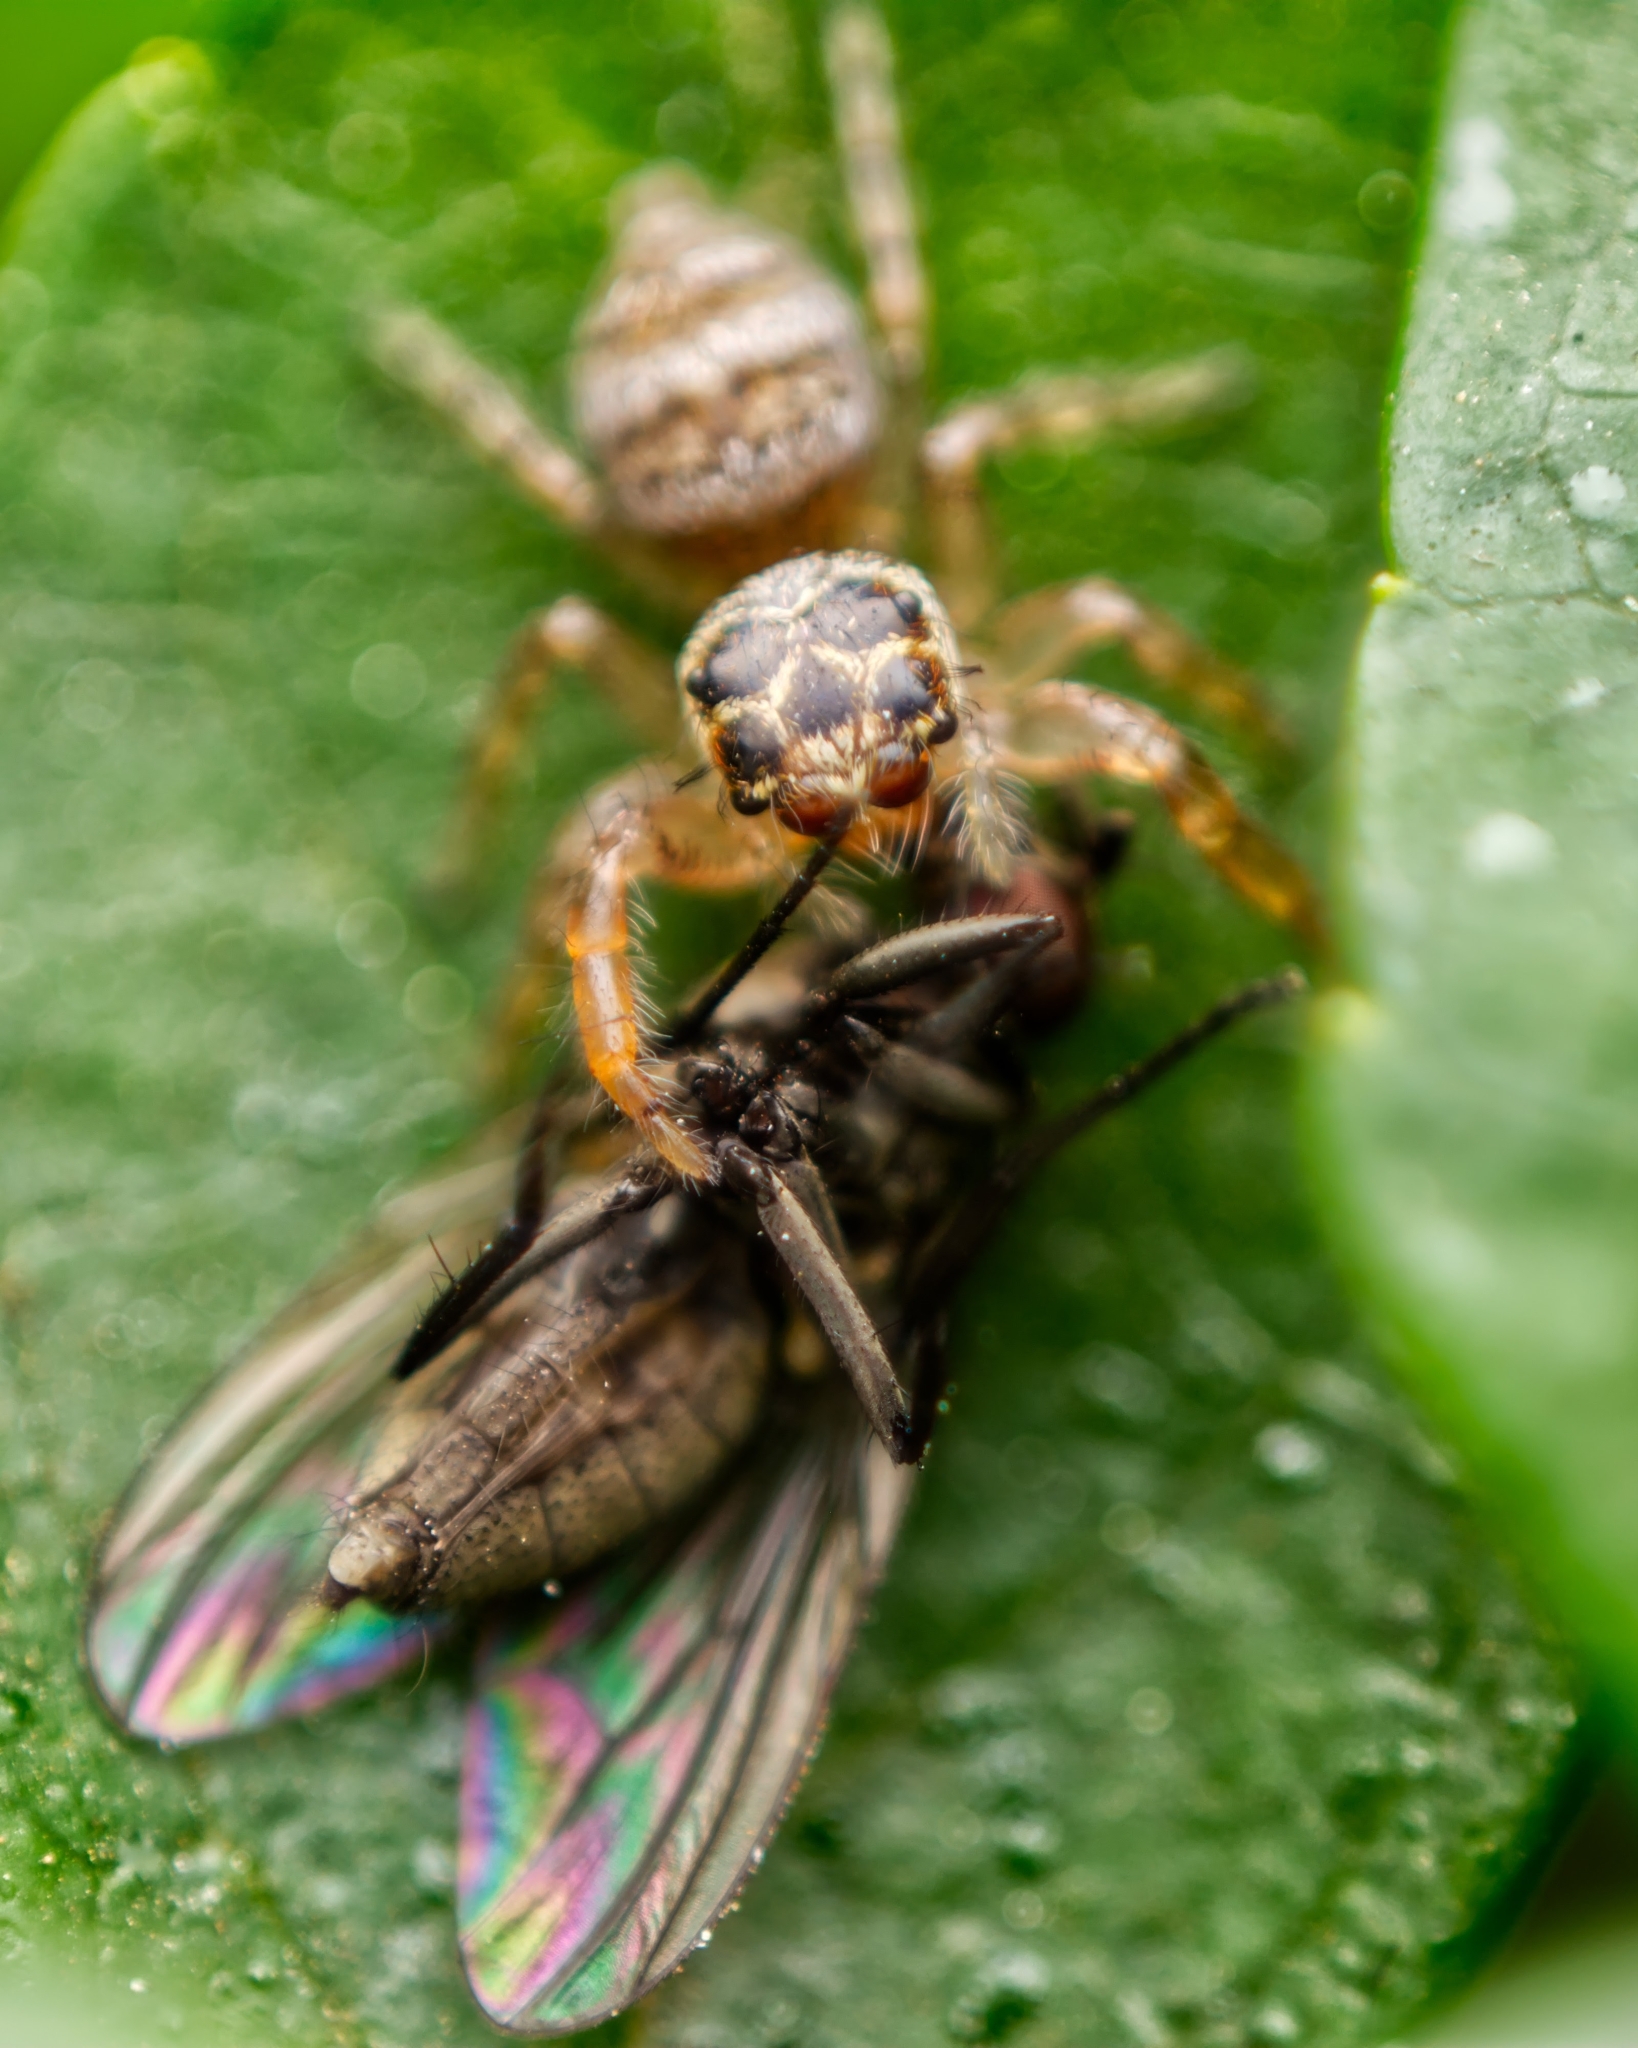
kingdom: Animalia
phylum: Arthropoda
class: Arachnida
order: Araneae
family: Salticidae
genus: Thyene
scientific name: Thyene natalii
